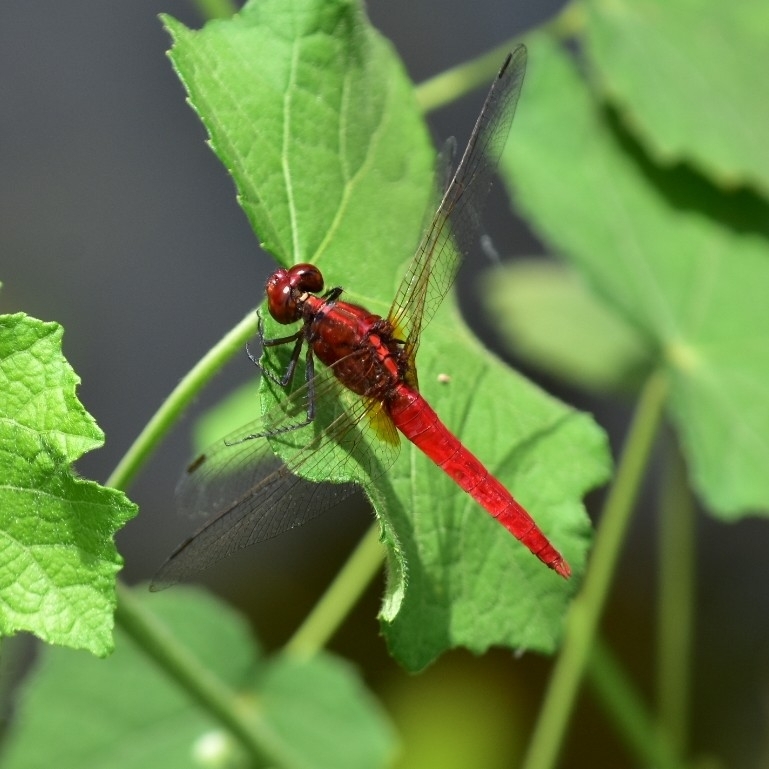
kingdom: Animalia
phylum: Arthropoda
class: Insecta
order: Odonata
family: Libellulidae
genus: Rhodothemis
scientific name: Rhodothemis rufa
